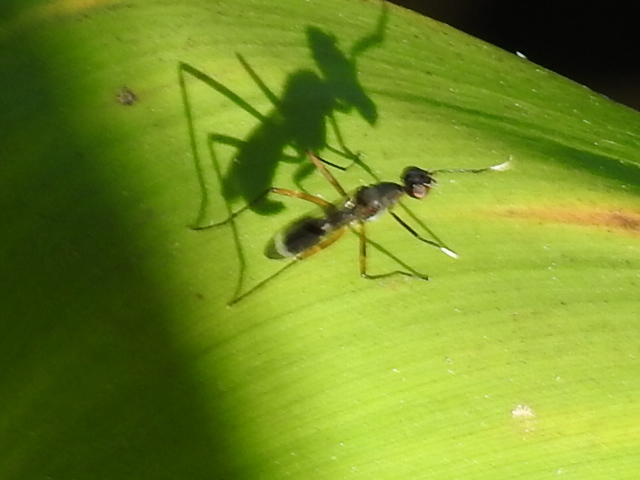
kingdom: Animalia
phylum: Arthropoda
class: Insecta
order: Diptera
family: Micropezidae
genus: Taeniaptera
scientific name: Taeniaptera trivittata
